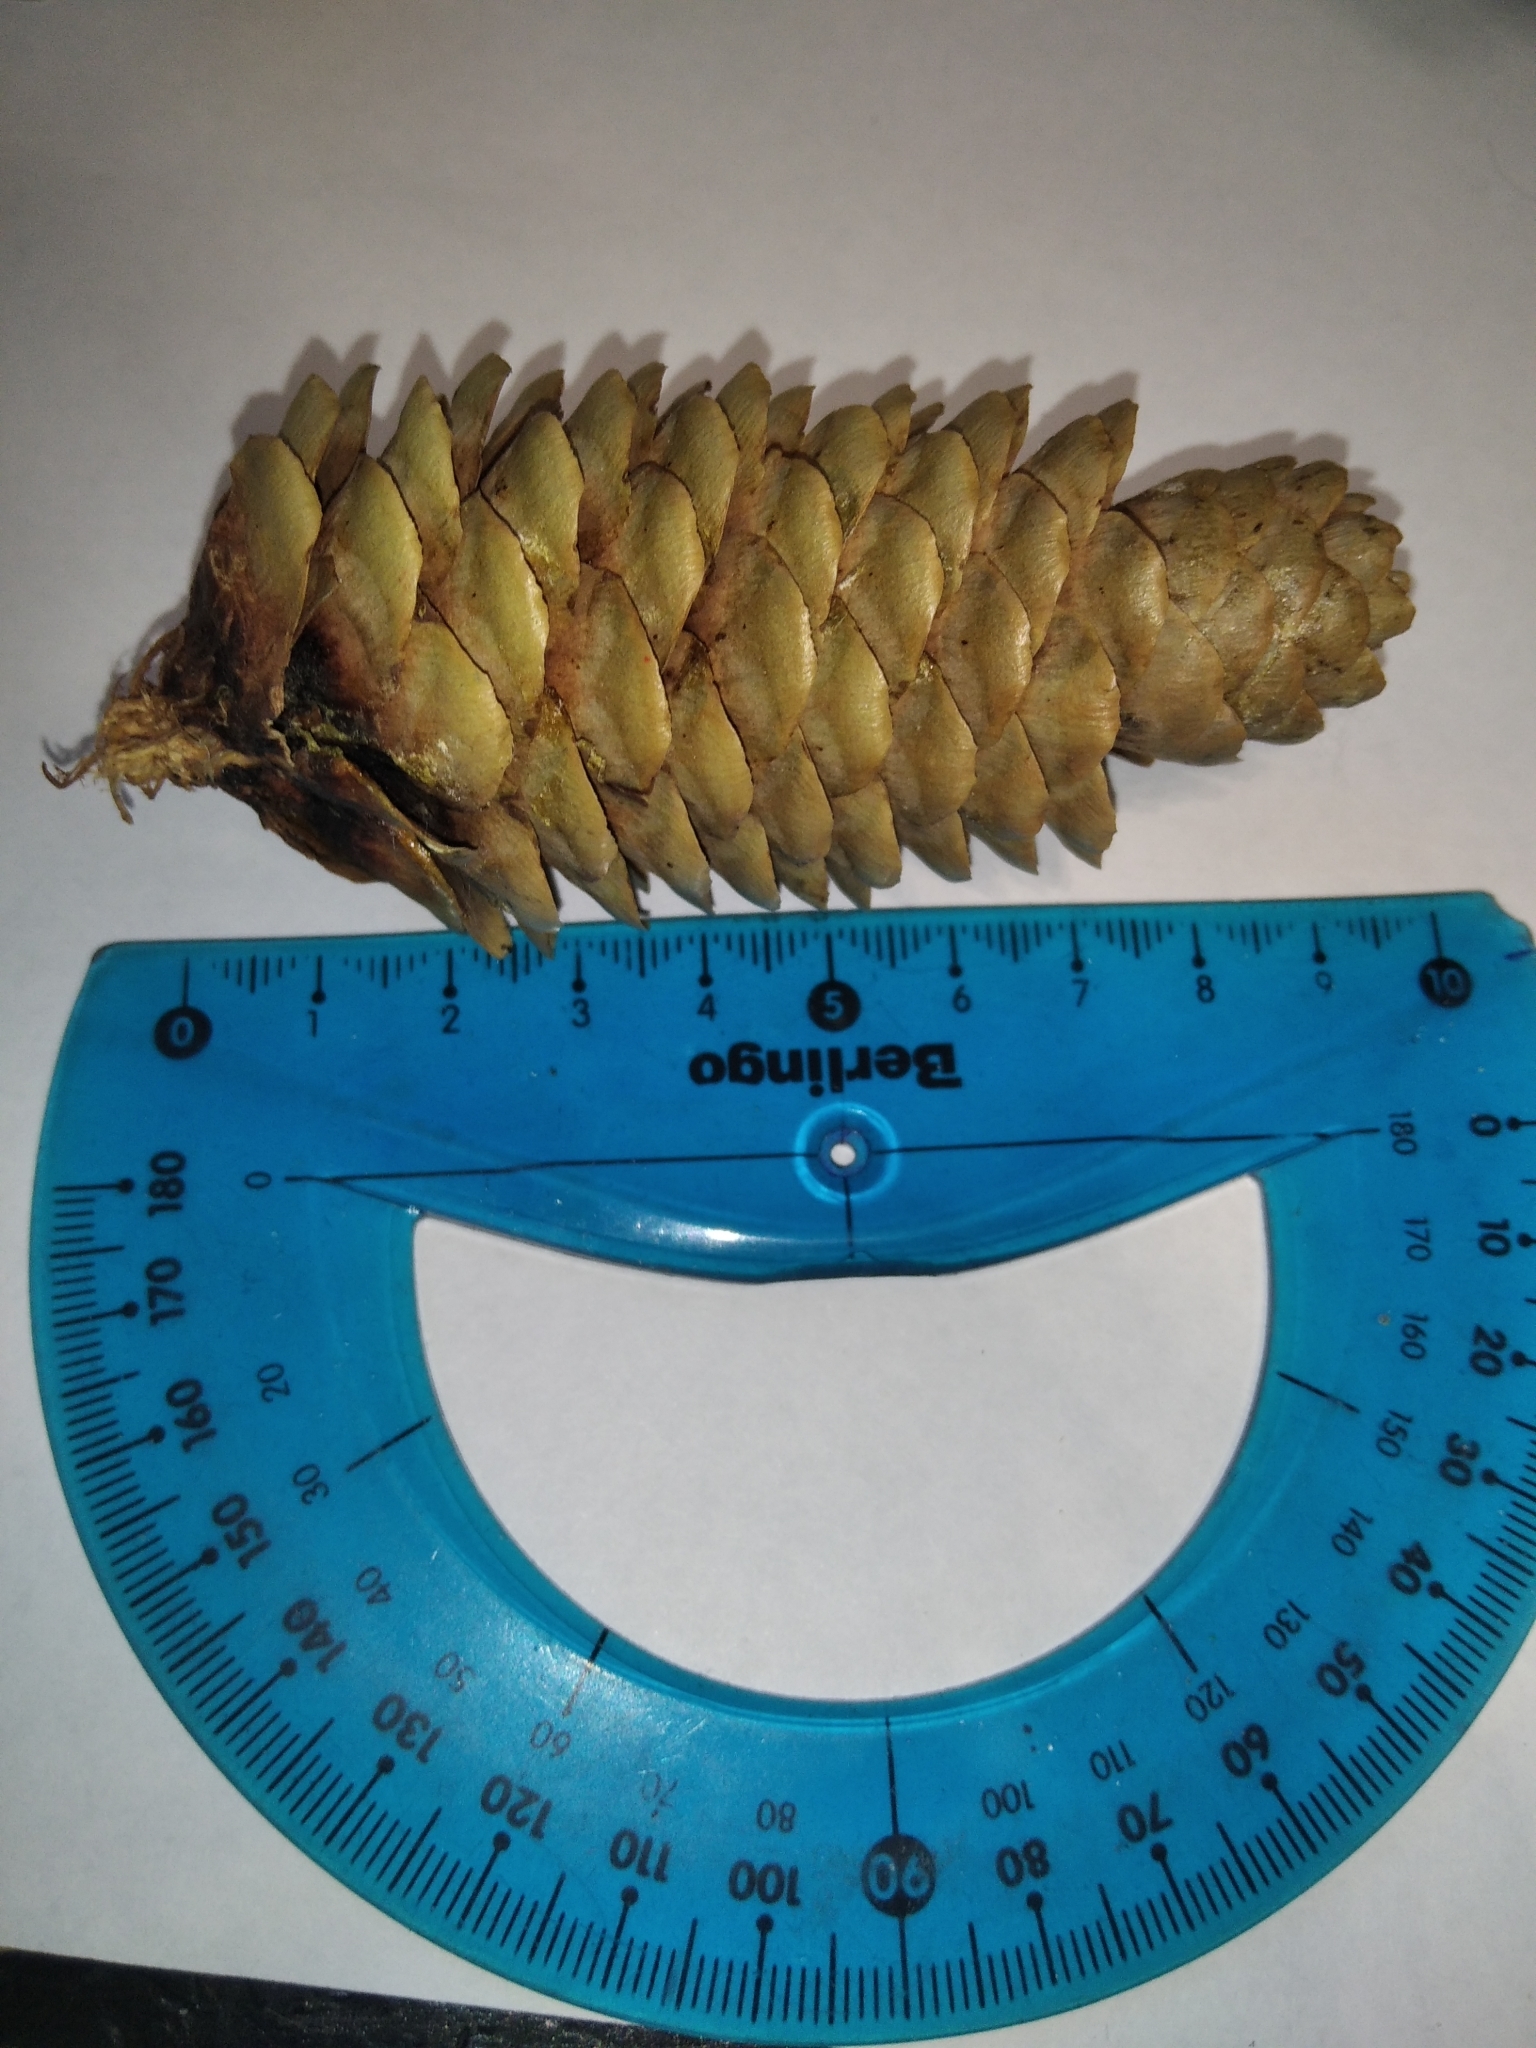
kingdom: Plantae
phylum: Tracheophyta
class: Pinopsida
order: Pinales
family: Pinaceae
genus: Picea
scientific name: Picea abies
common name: Norway spruce
